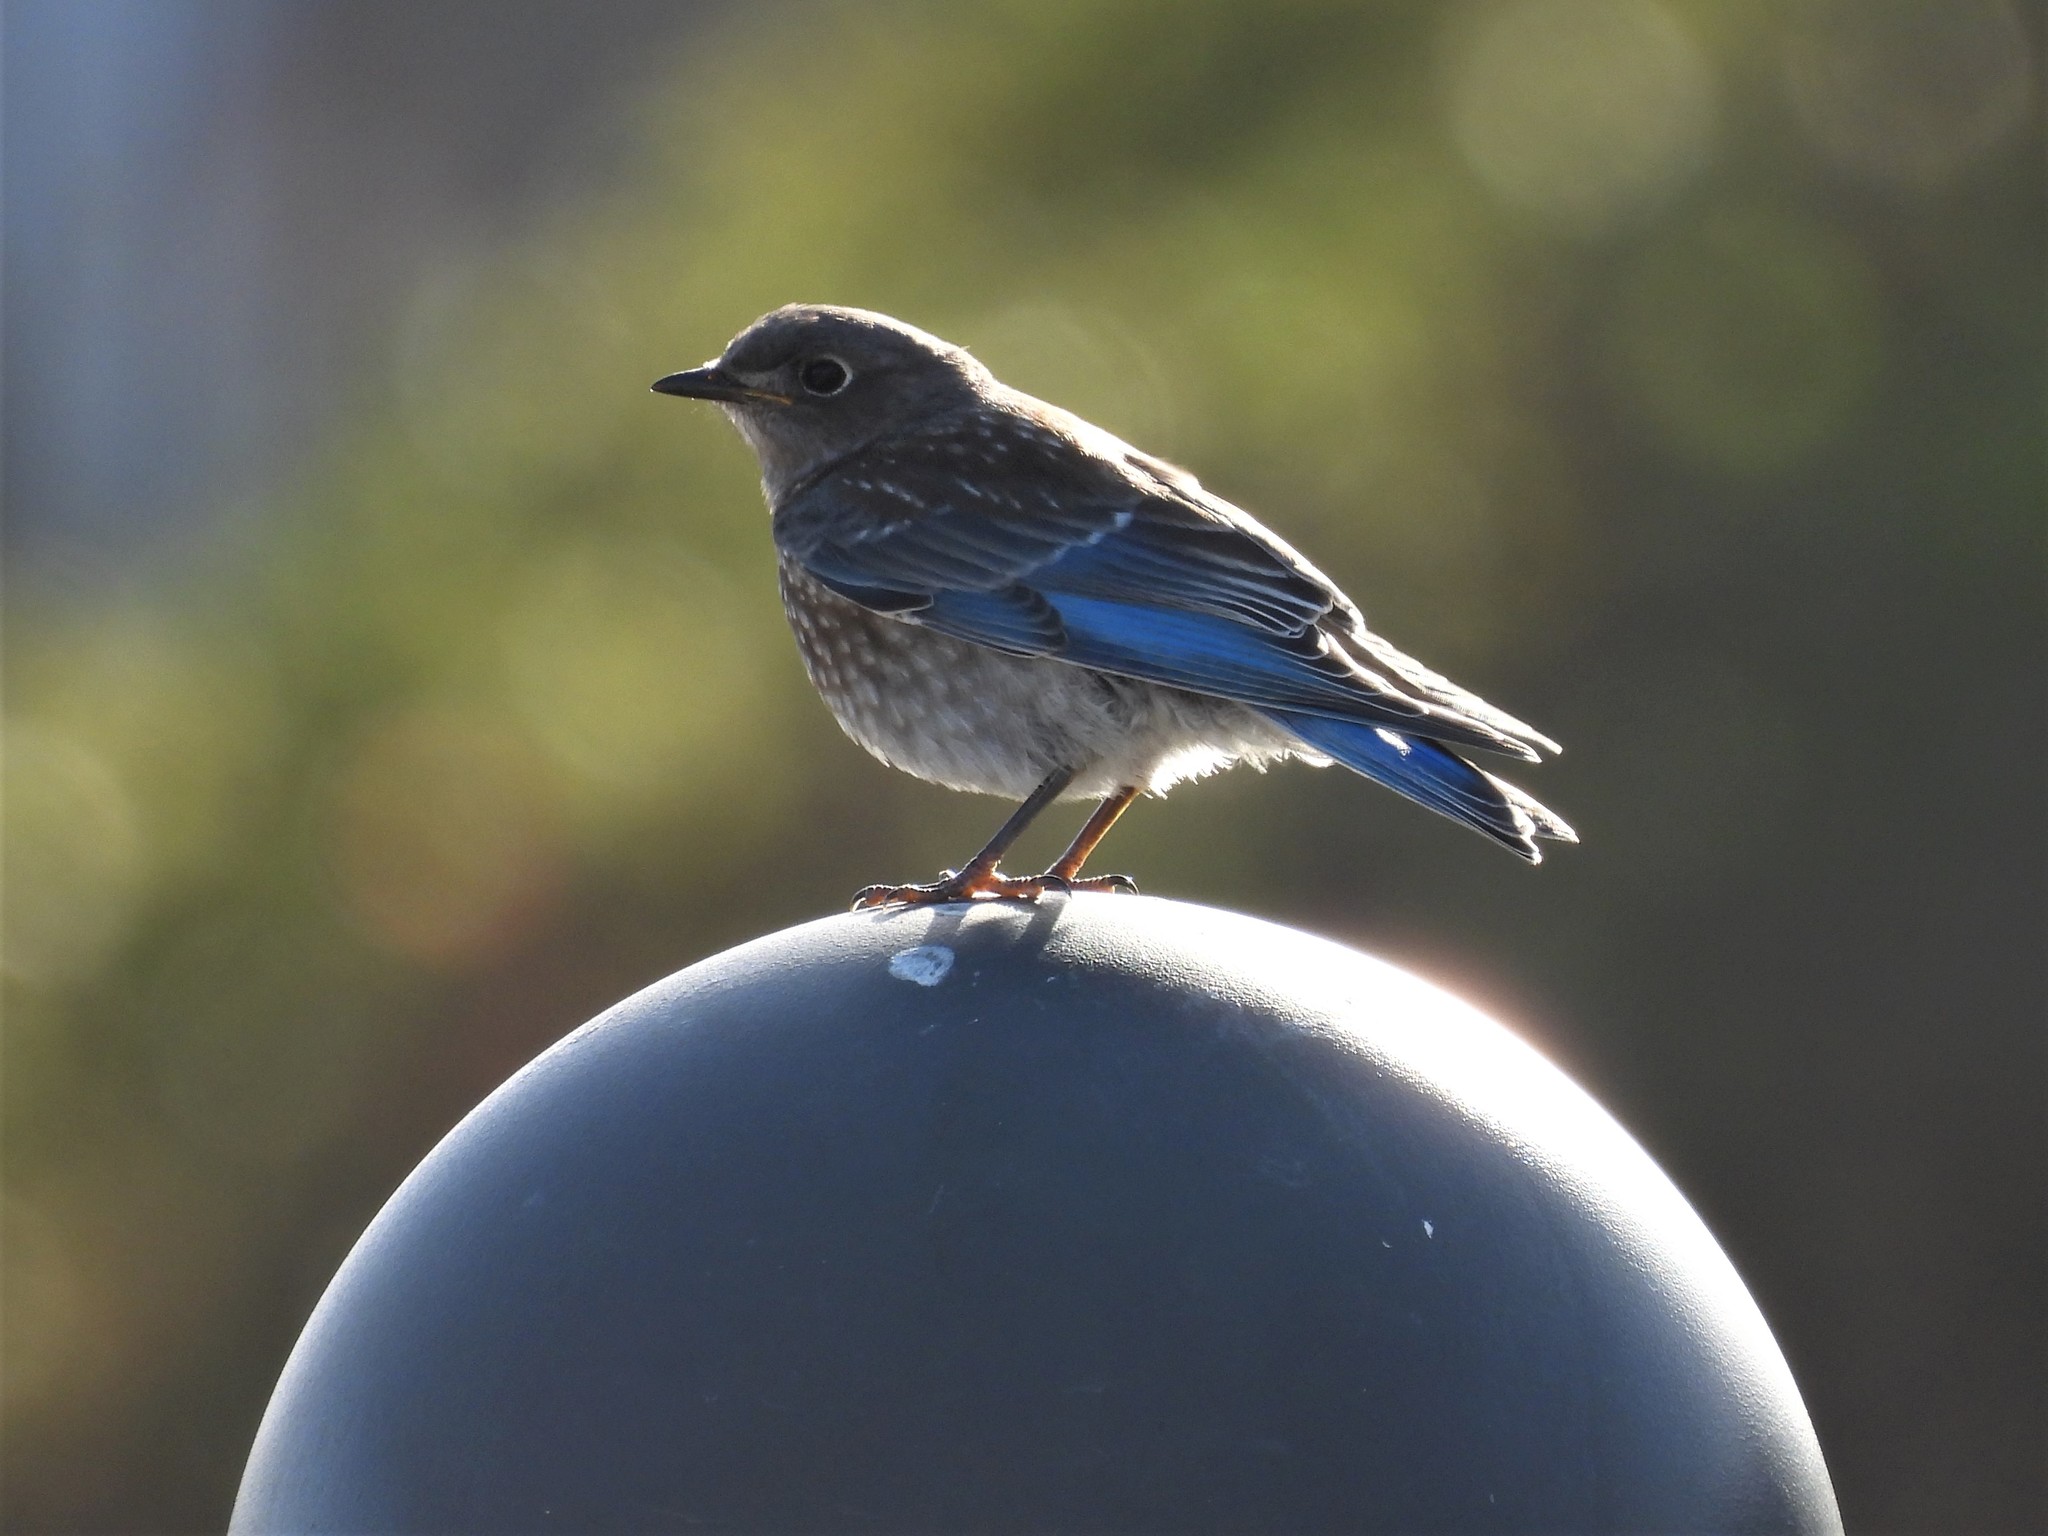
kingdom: Animalia
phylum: Chordata
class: Aves
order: Passeriformes
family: Turdidae
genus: Sialia
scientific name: Sialia mexicana
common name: Western bluebird
